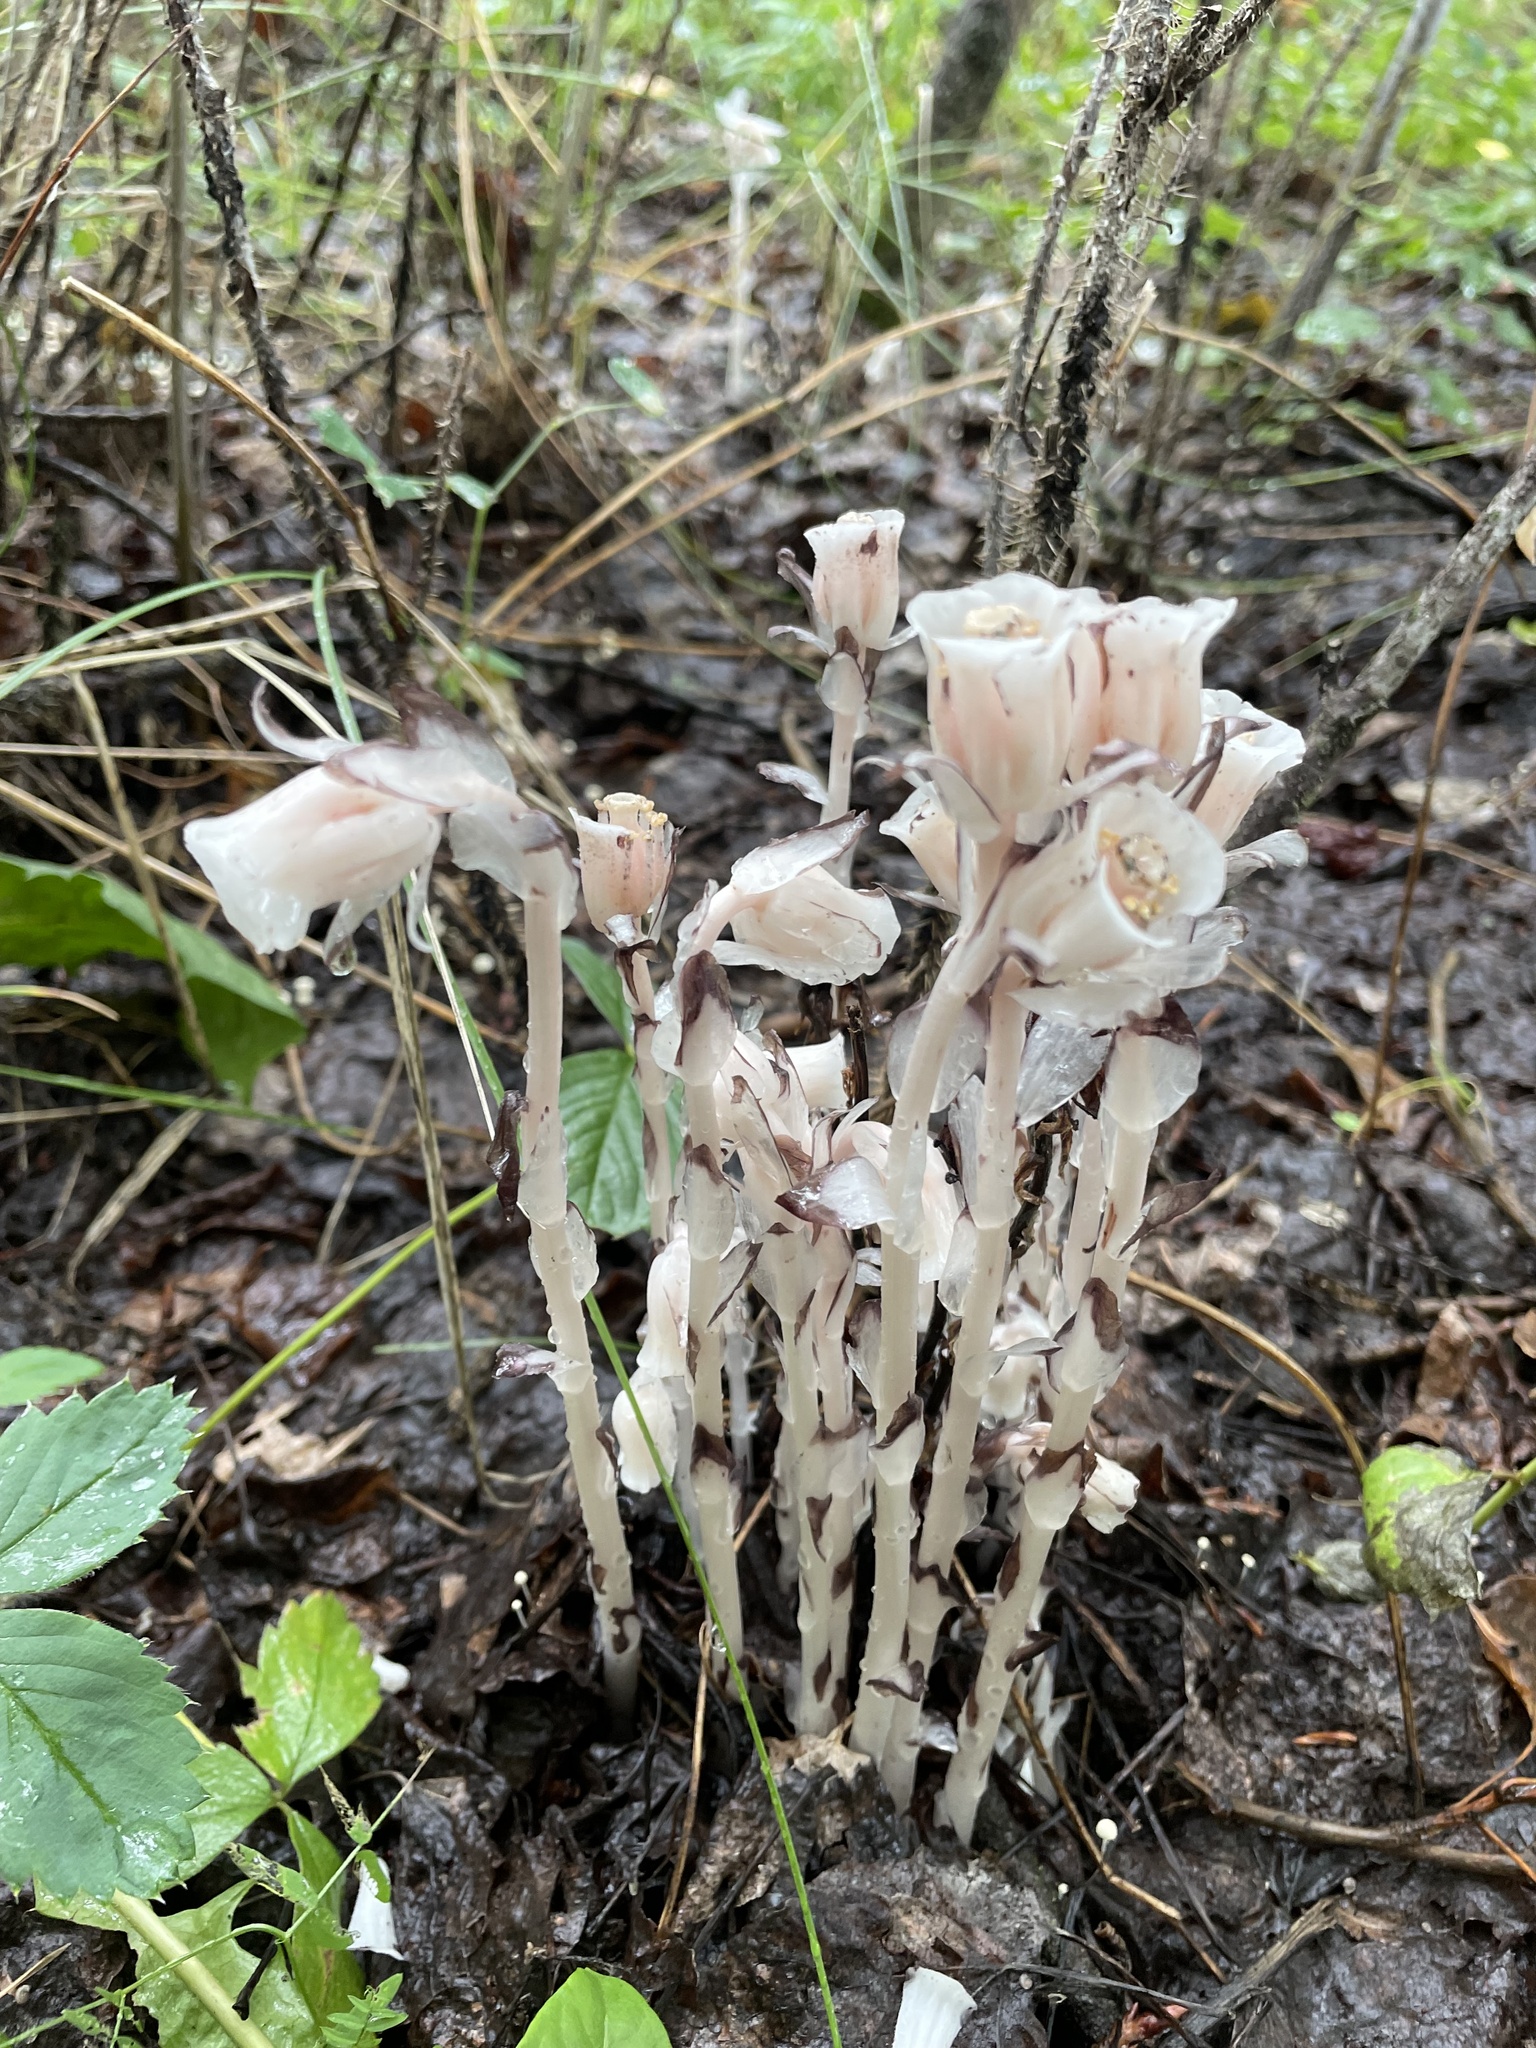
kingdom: Plantae
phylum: Tracheophyta
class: Magnoliopsida
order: Ericales
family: Ericaceae
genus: Monotropa
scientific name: Monotropa uniflora
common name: Convulsion root
